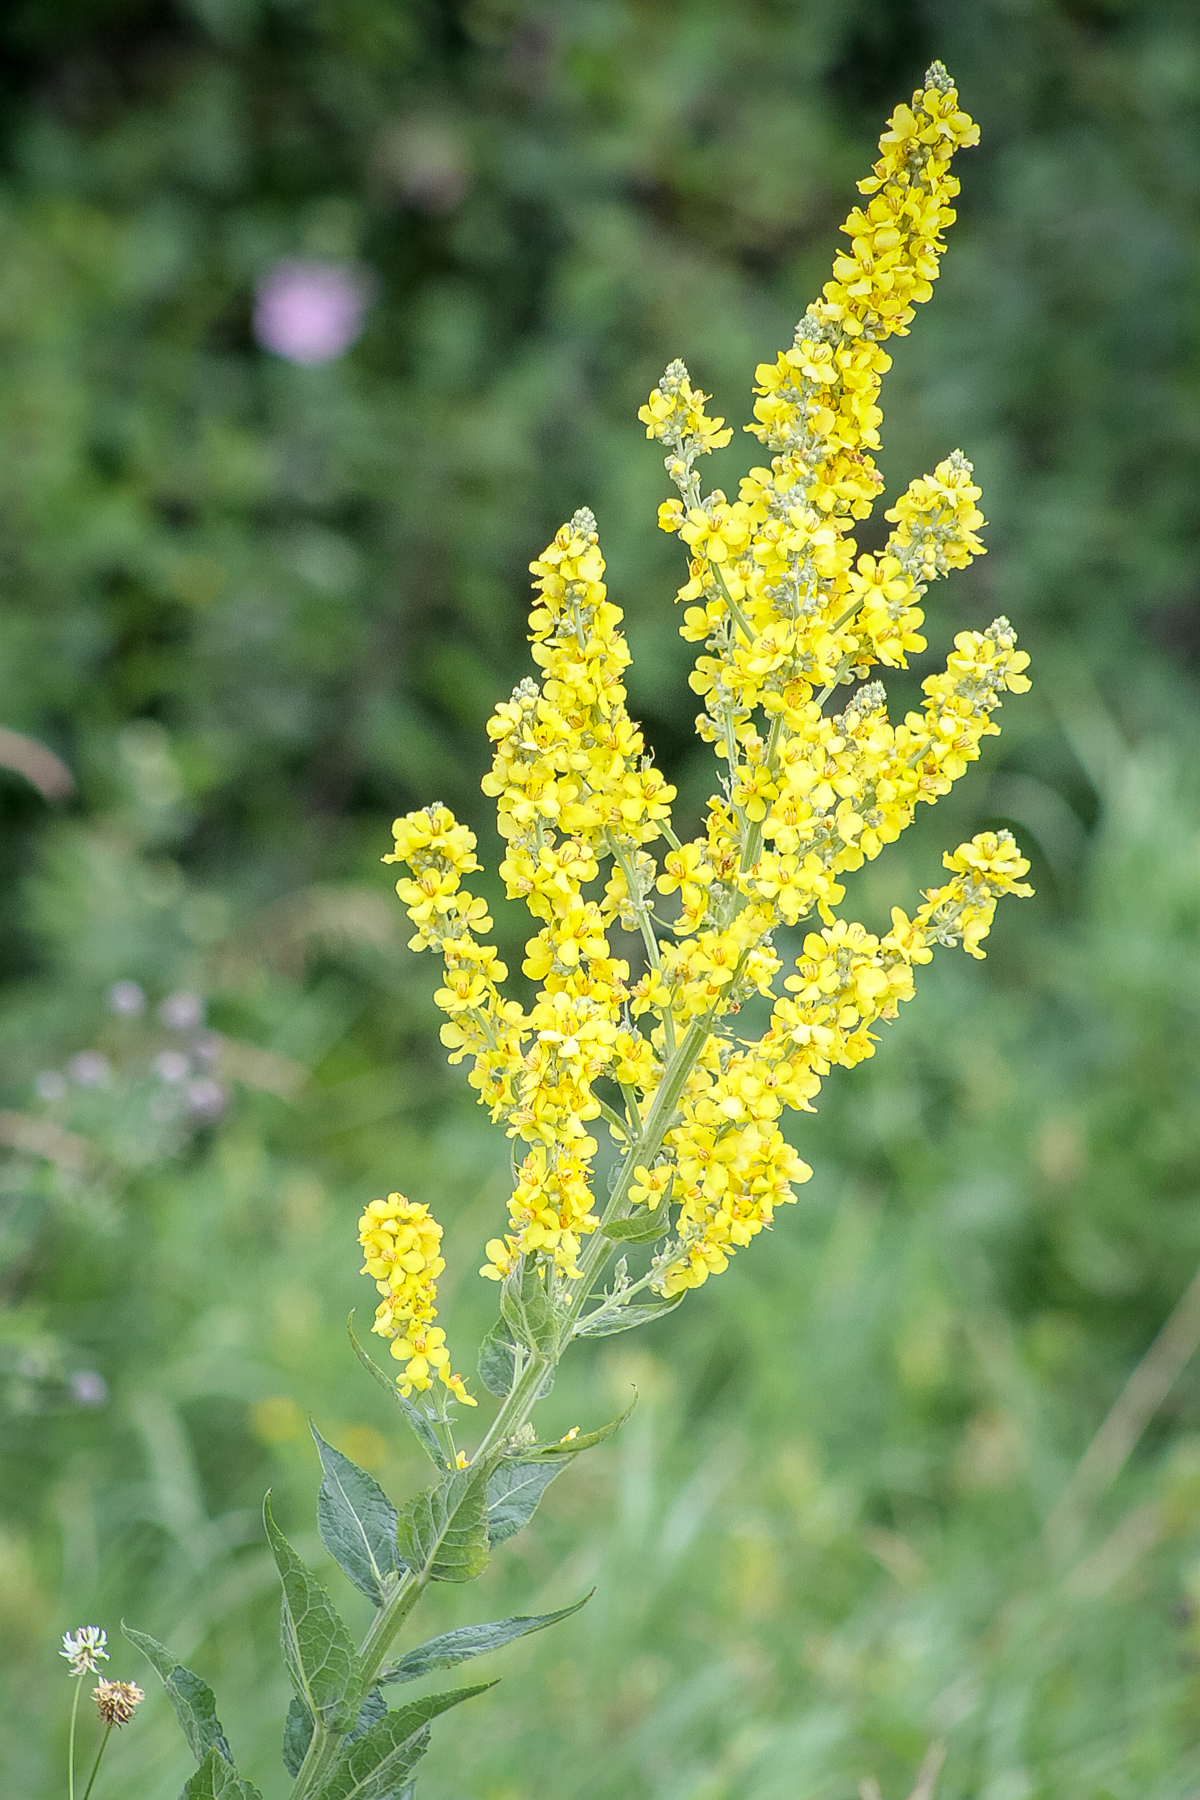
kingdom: Plantae
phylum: Tracheophyta
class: Magnoliopsida
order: Lamiales
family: Scrophulariaceae
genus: Verbascum
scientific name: Verbascum lychnitis
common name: White mullein
